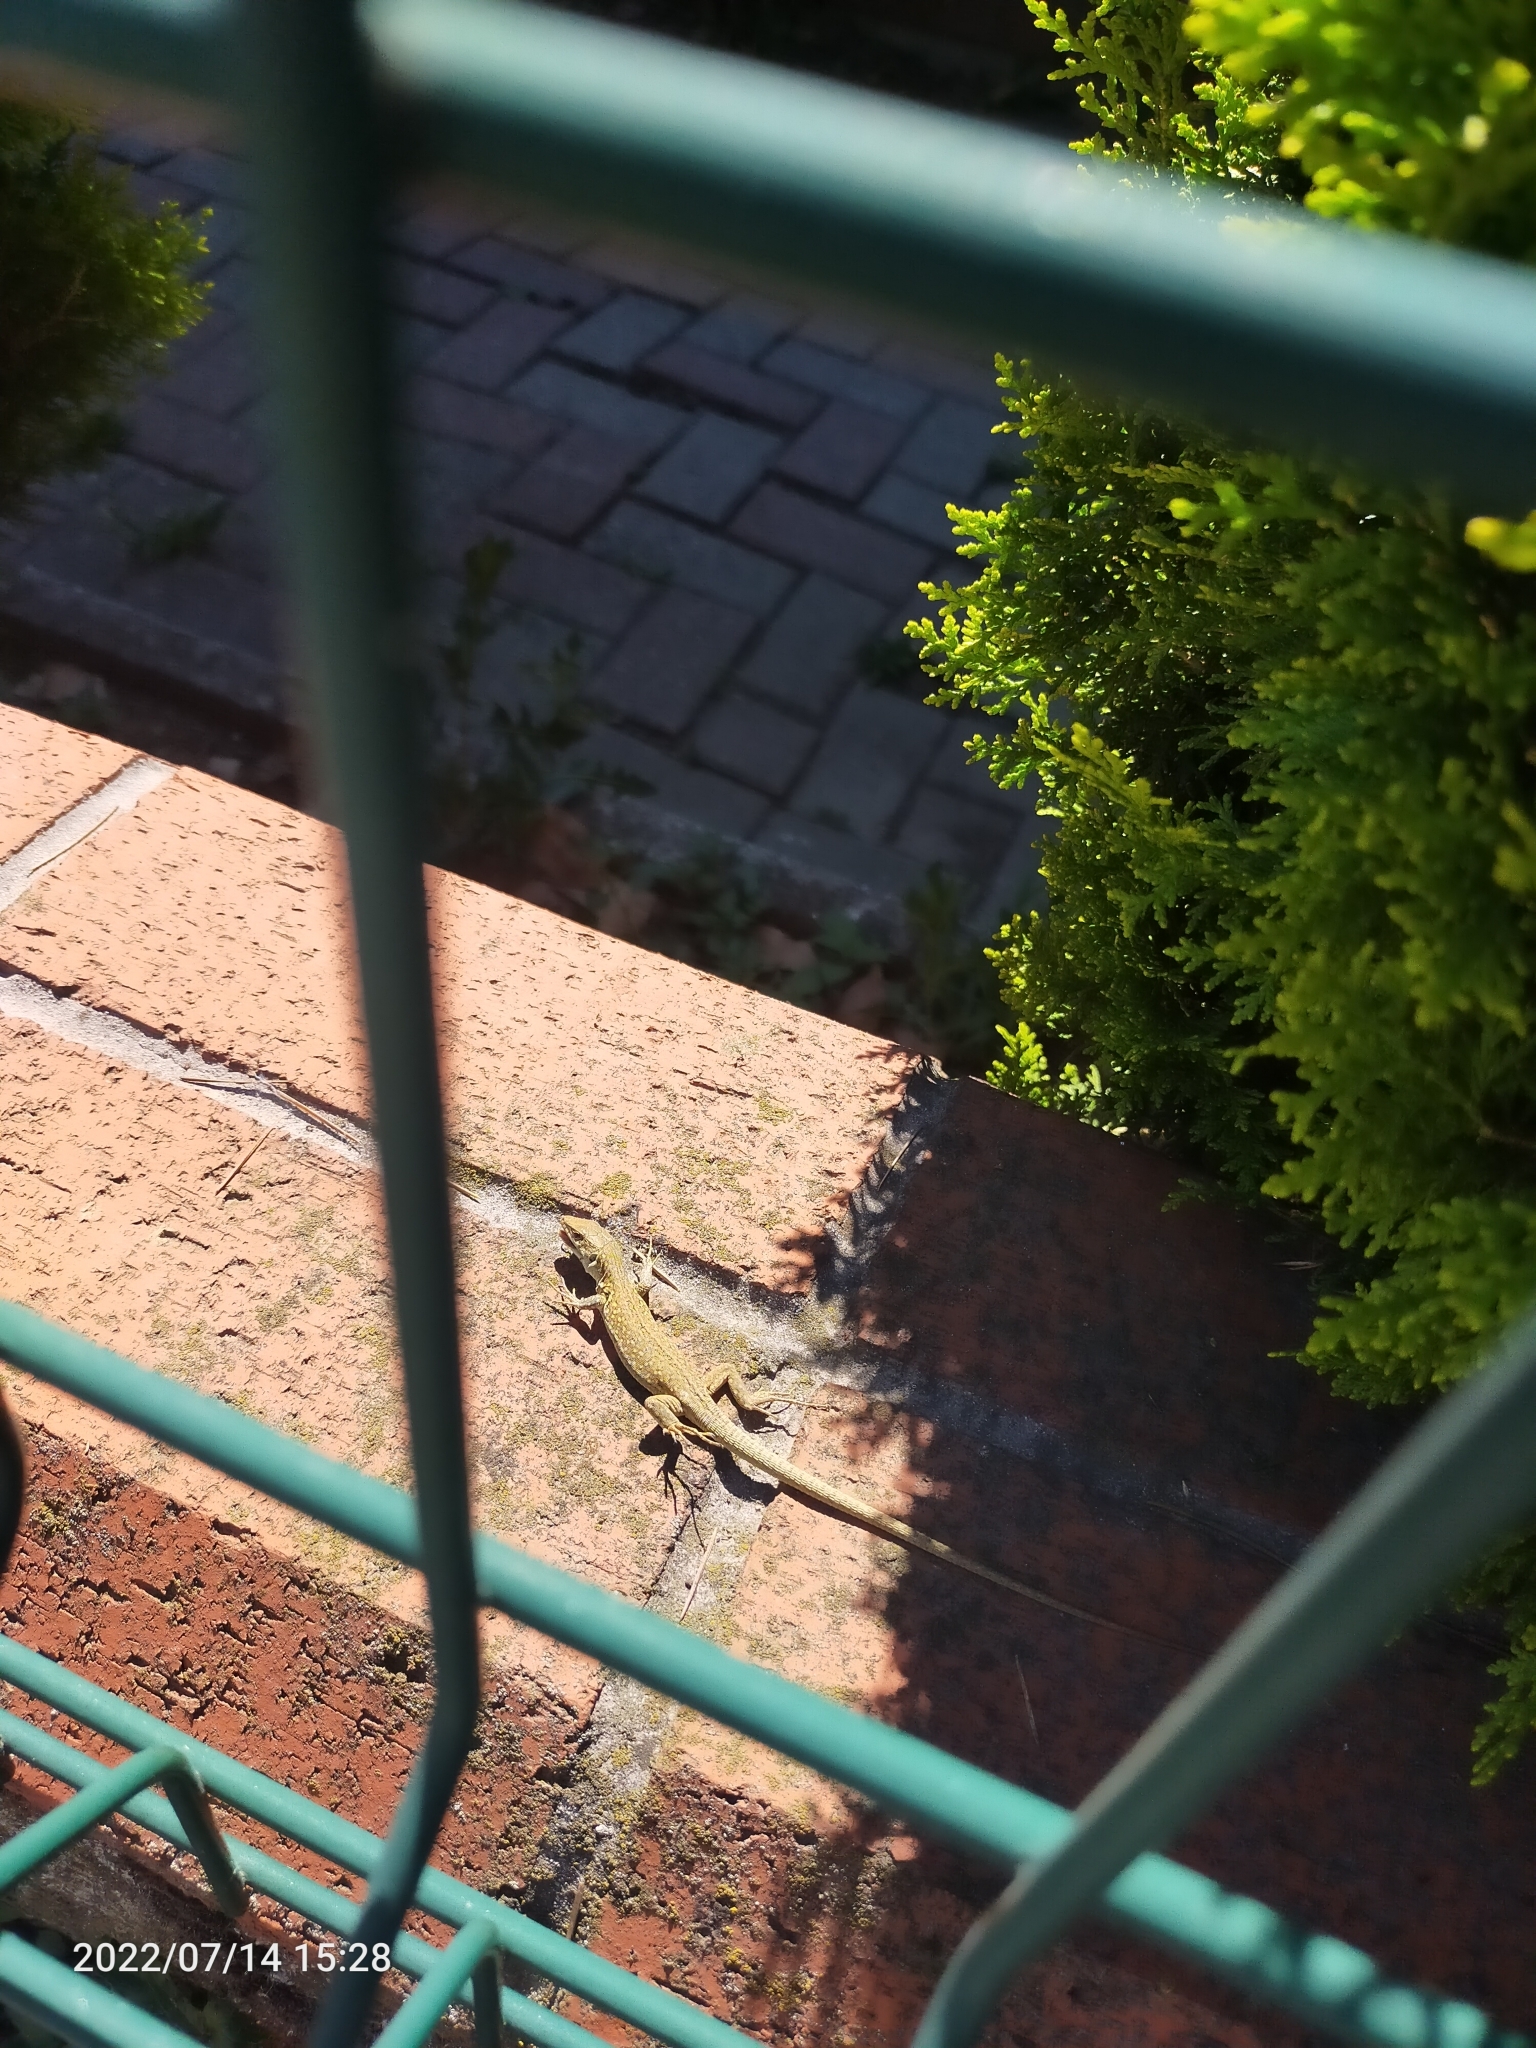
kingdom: Animalia
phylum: Chordata
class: Squamata
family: Lacertidae
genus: Podarcis
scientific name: Podarcis siculus
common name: Italian wall lizard
